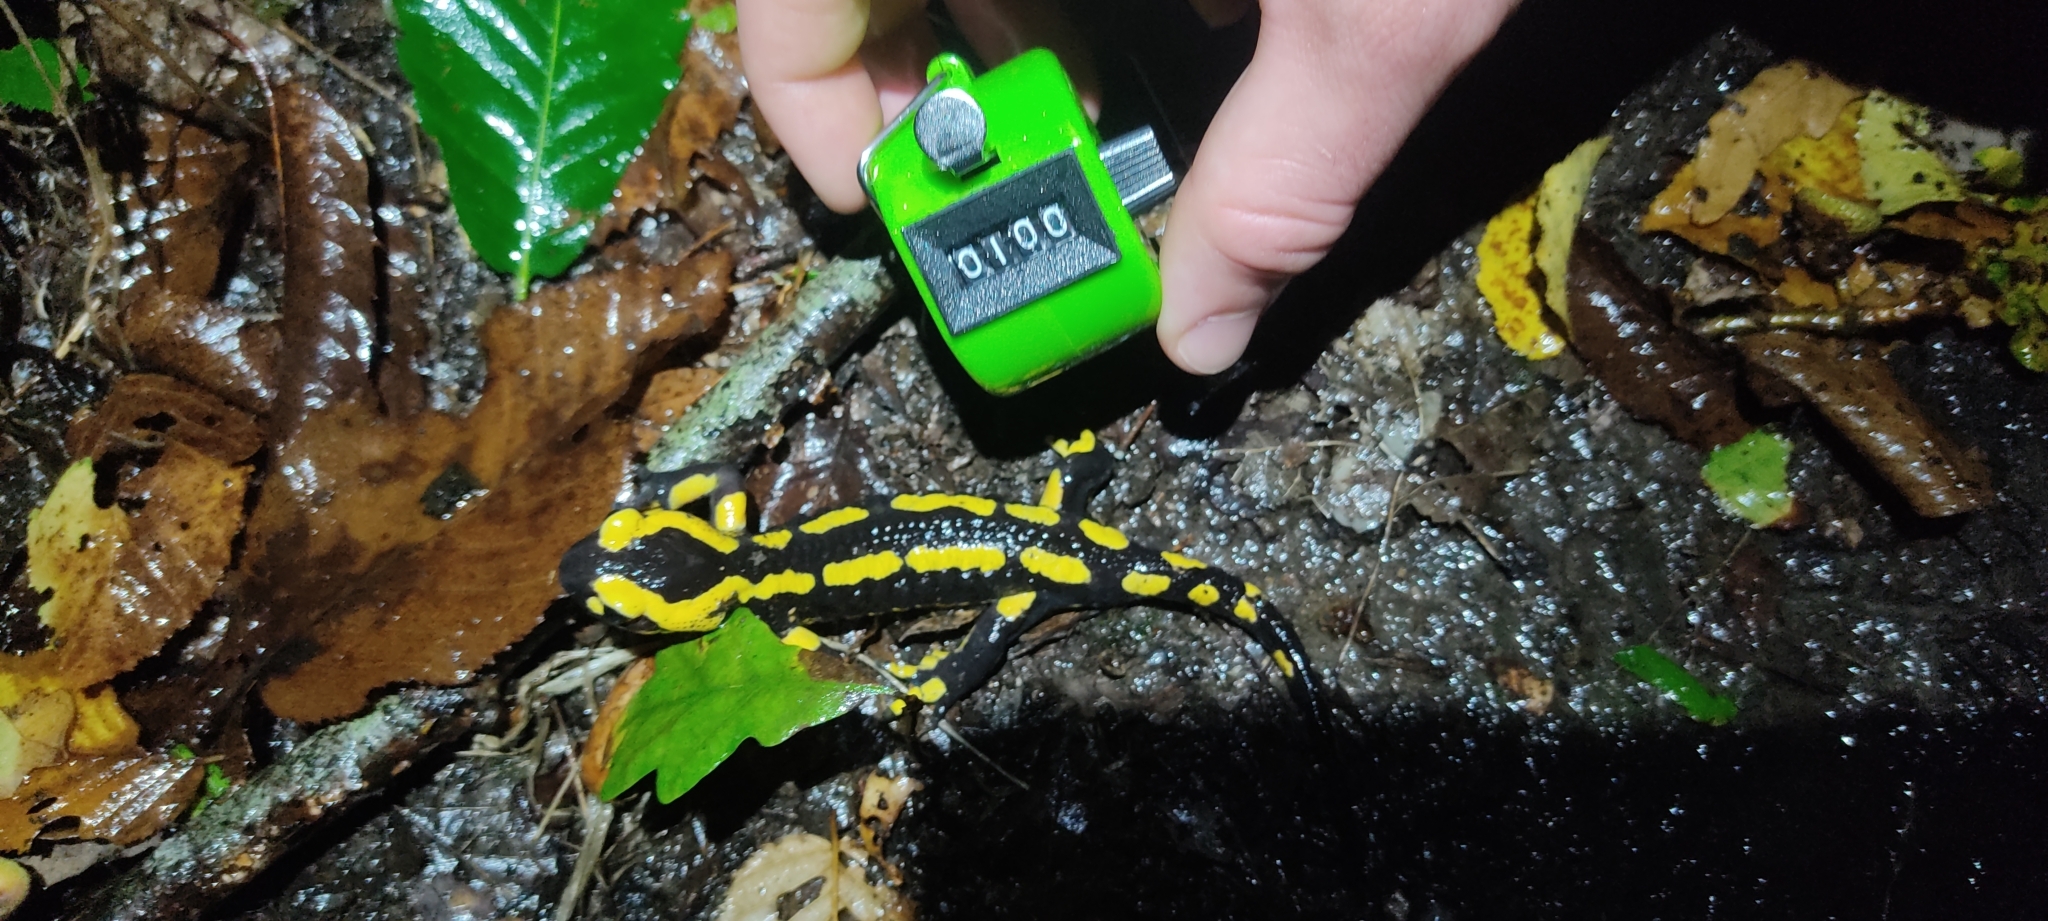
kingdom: Animalia
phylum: Chordata
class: Amphibia
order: Caudata
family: Salamandridae
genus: Salamandra
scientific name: Salamandra salamandra
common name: Fire salamander
